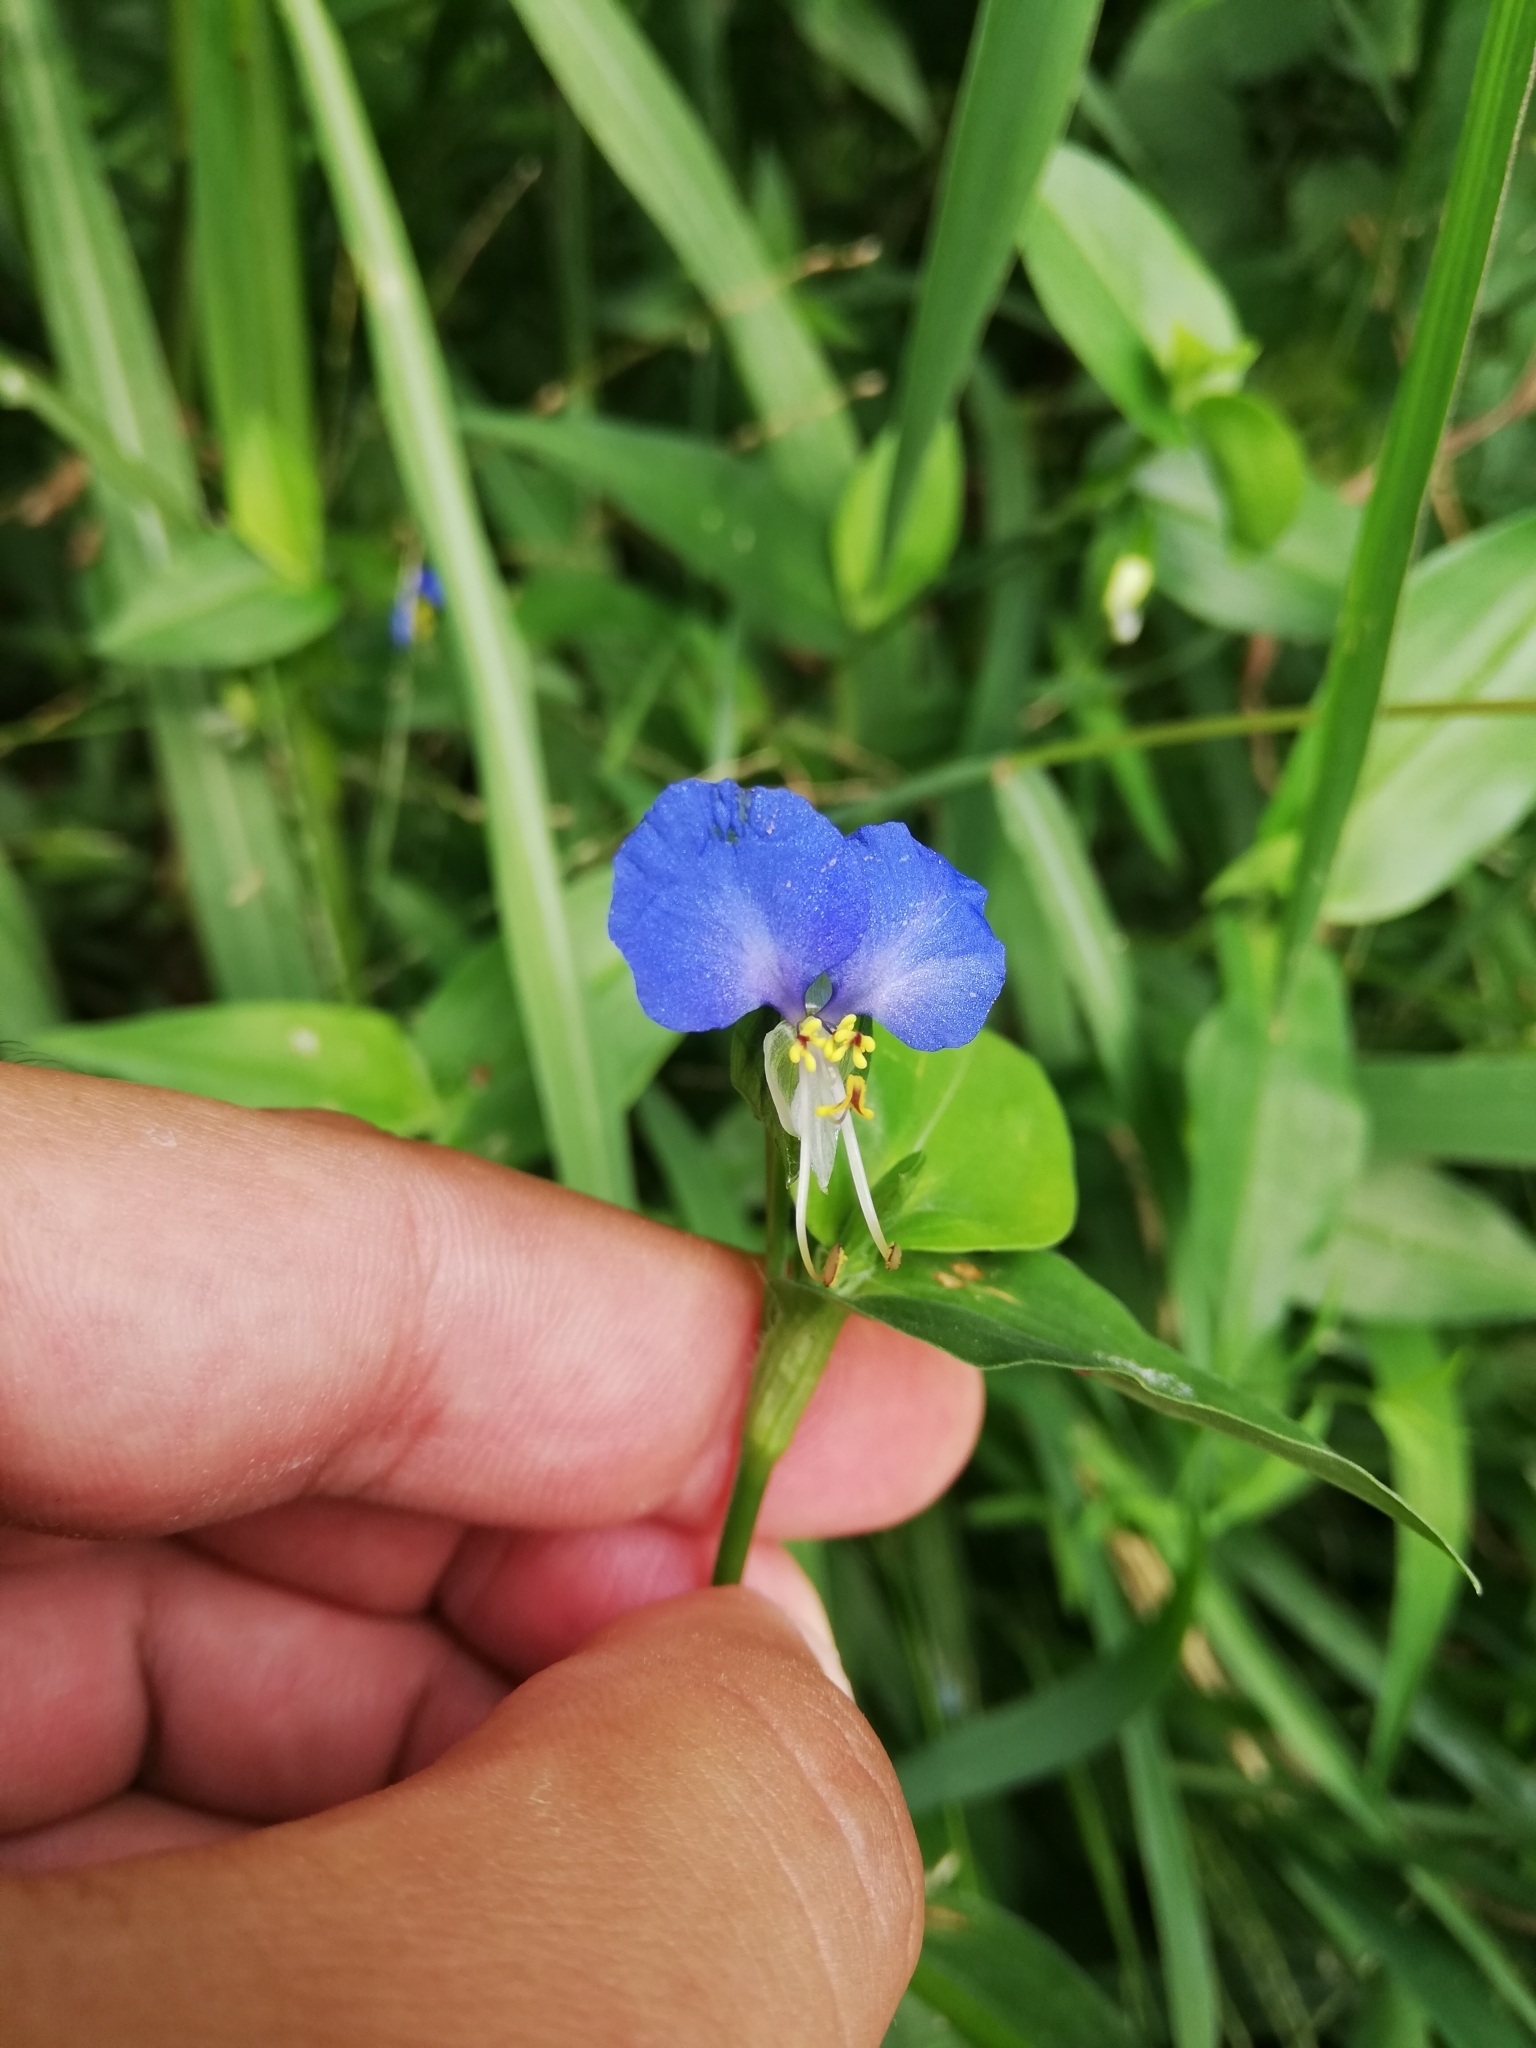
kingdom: Plantae
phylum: Tracheophyta
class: Liliopsida
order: Commelinales
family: Commelinaceae
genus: Commelina
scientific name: Commelina communis
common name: Asiatic dayflower
